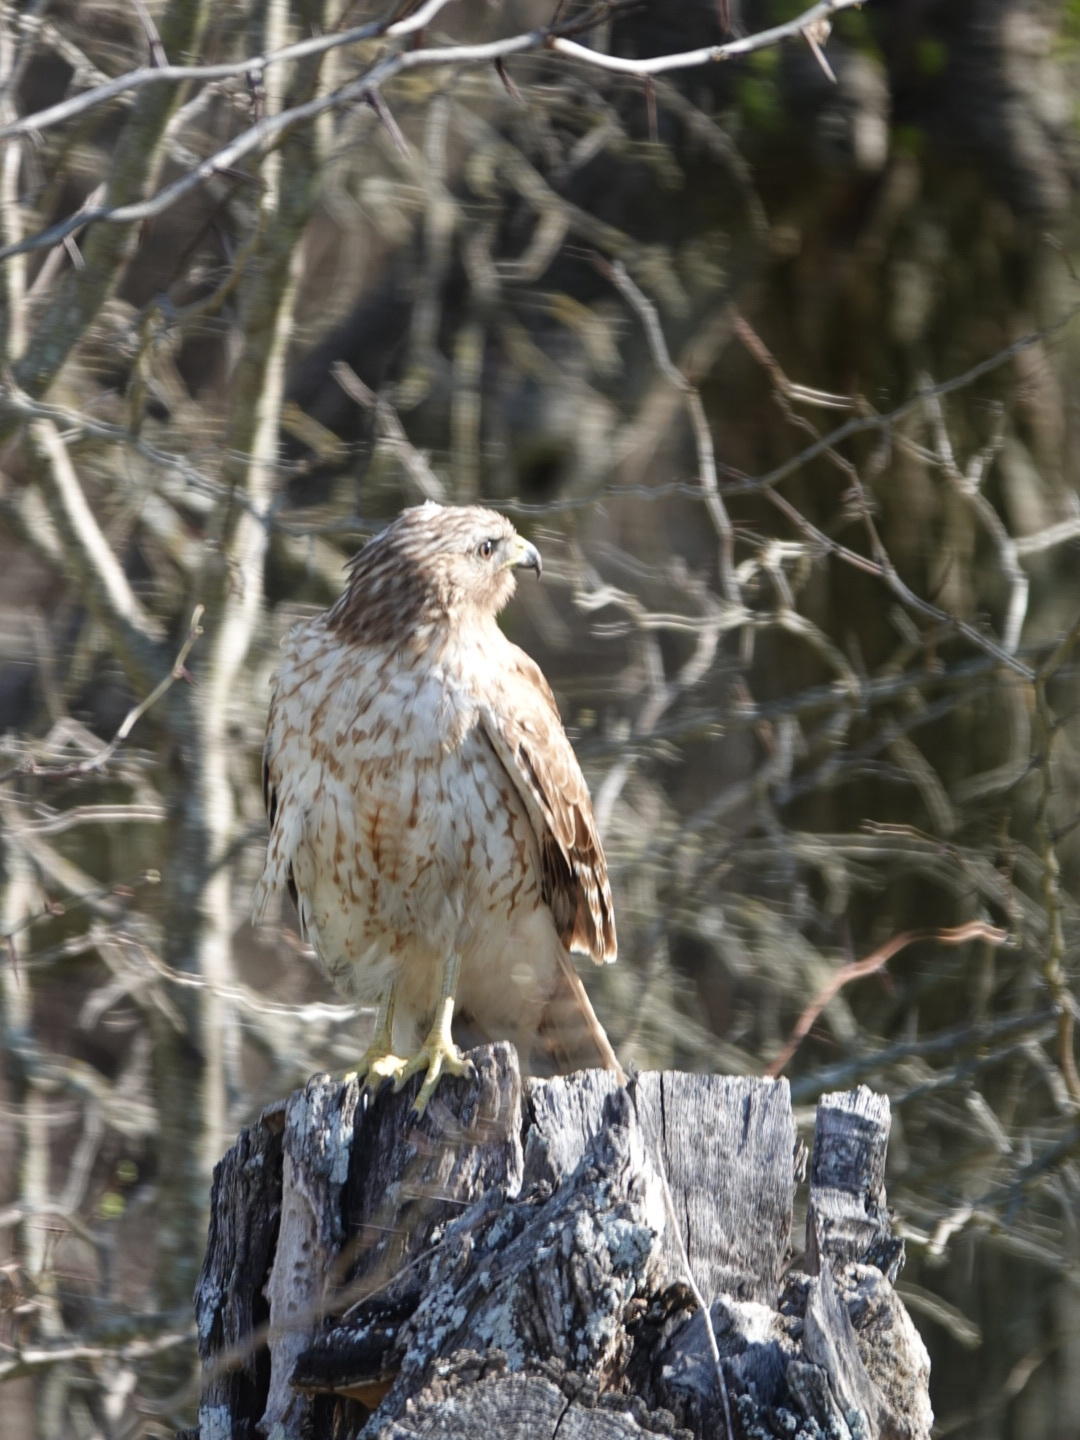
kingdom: Animalia
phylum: Chordata
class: Aves
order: Accipitriformes
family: Accipitridae
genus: Buteo
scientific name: Buteo lineatus
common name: Red-shouldered hawk
